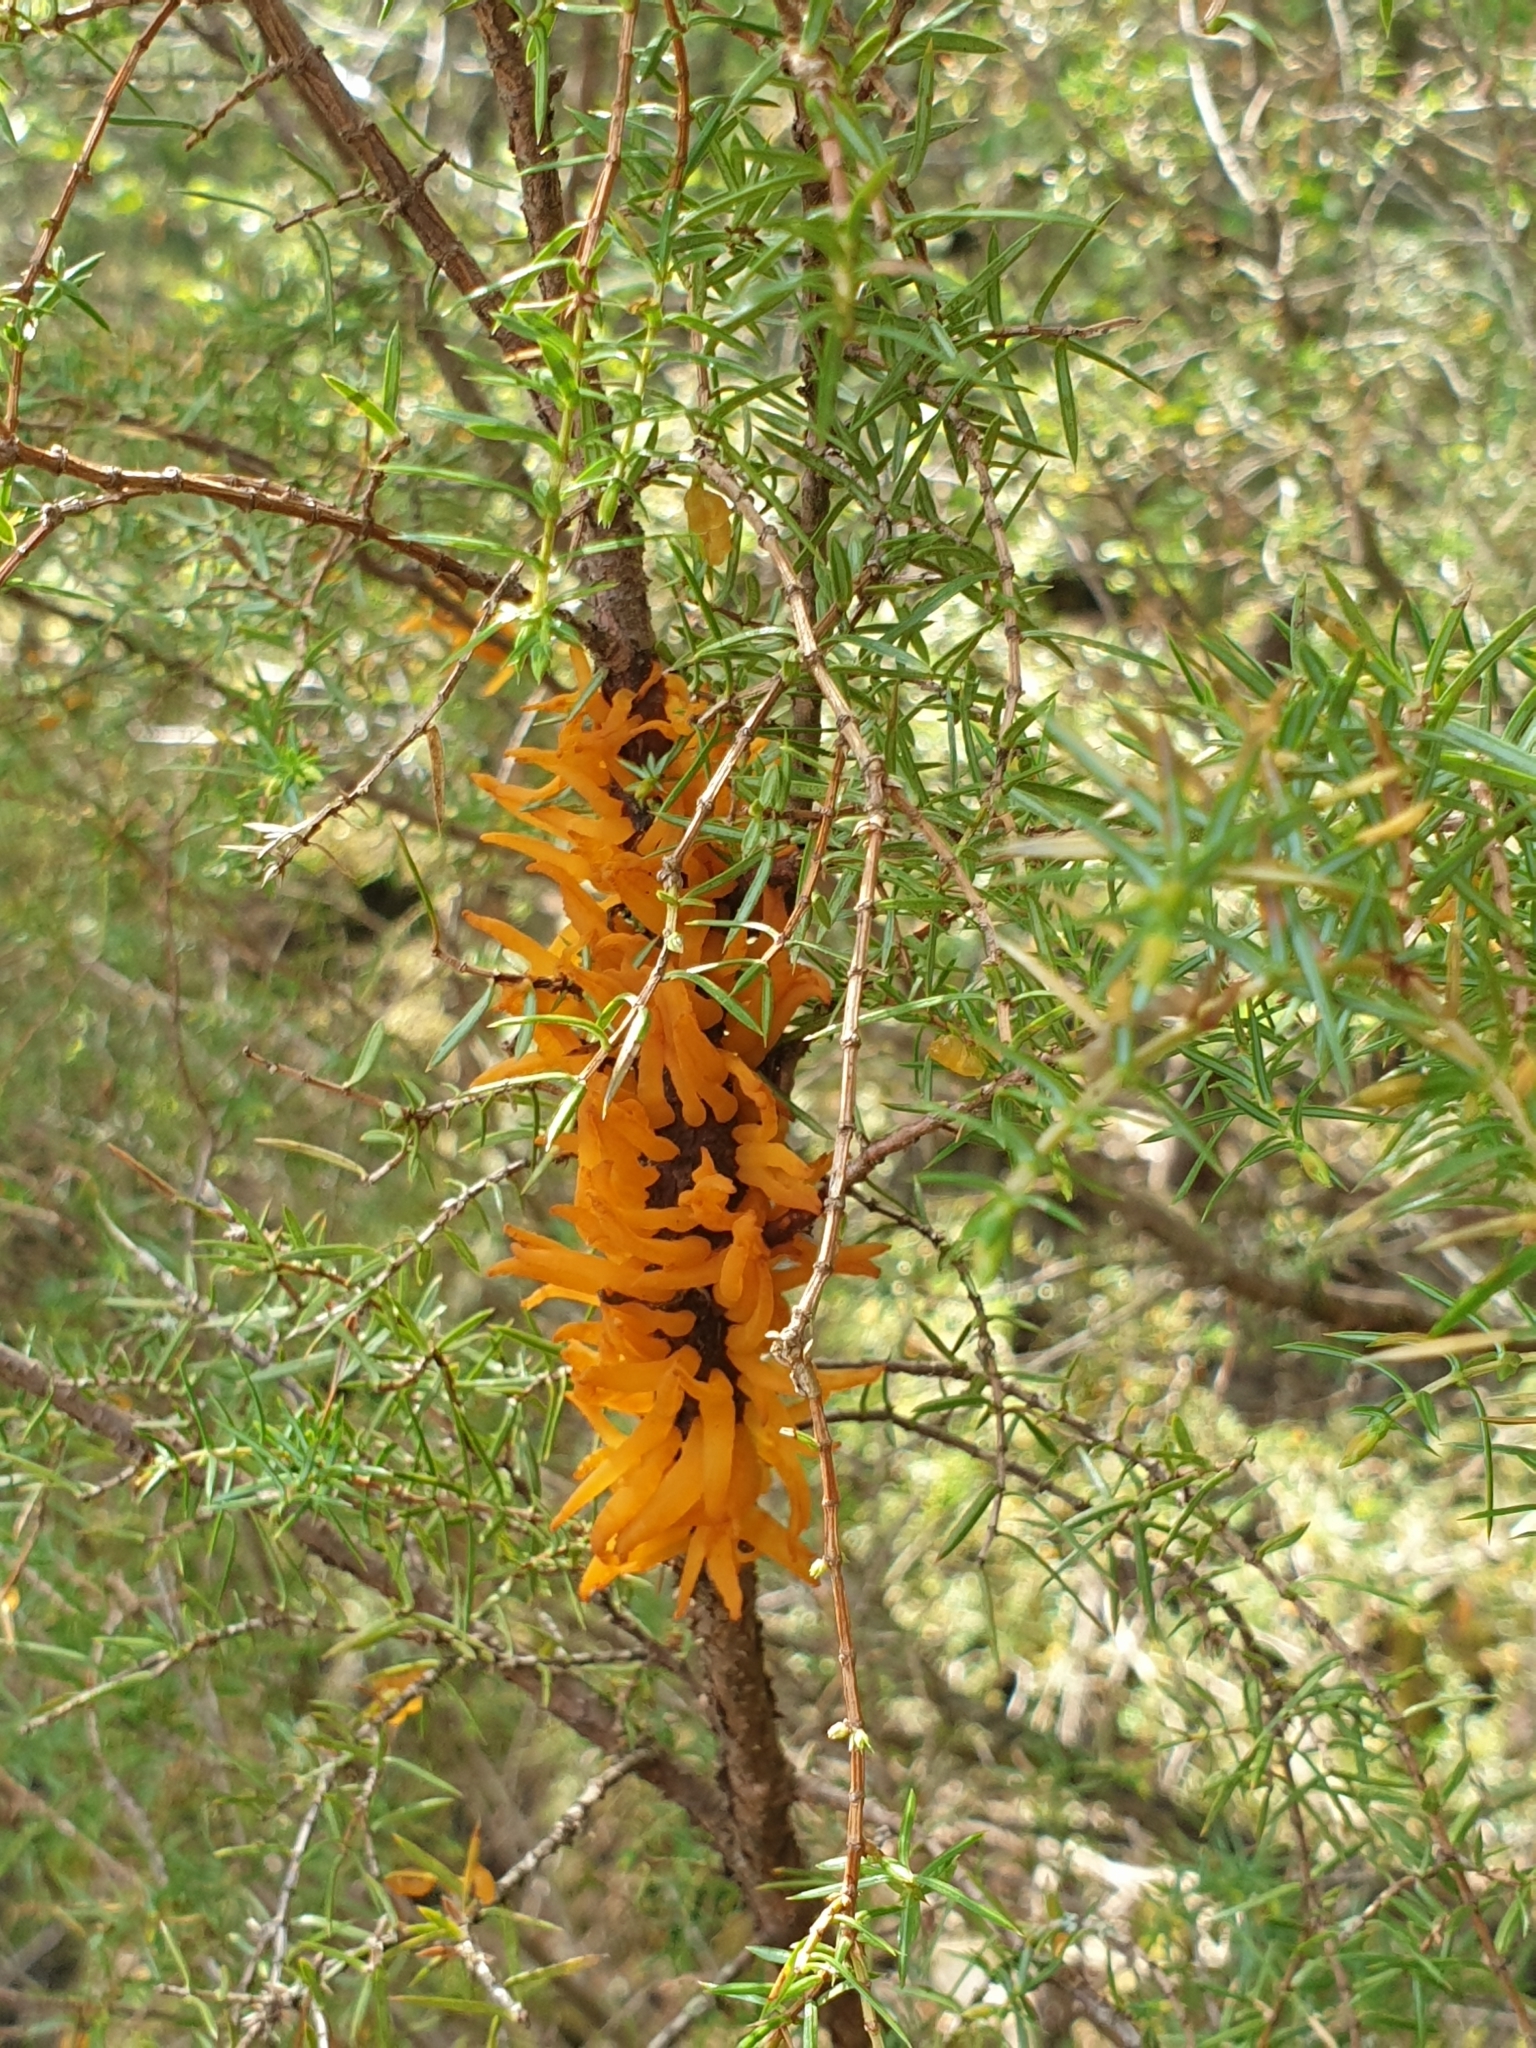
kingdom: Fungi
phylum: Basidiomycota
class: Pucciniomycetes
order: Pucciniales
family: Gymnosporangiaceae
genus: Gymnosporangium
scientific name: Gymnosporangium clavariiforme
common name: Tongues of fire
